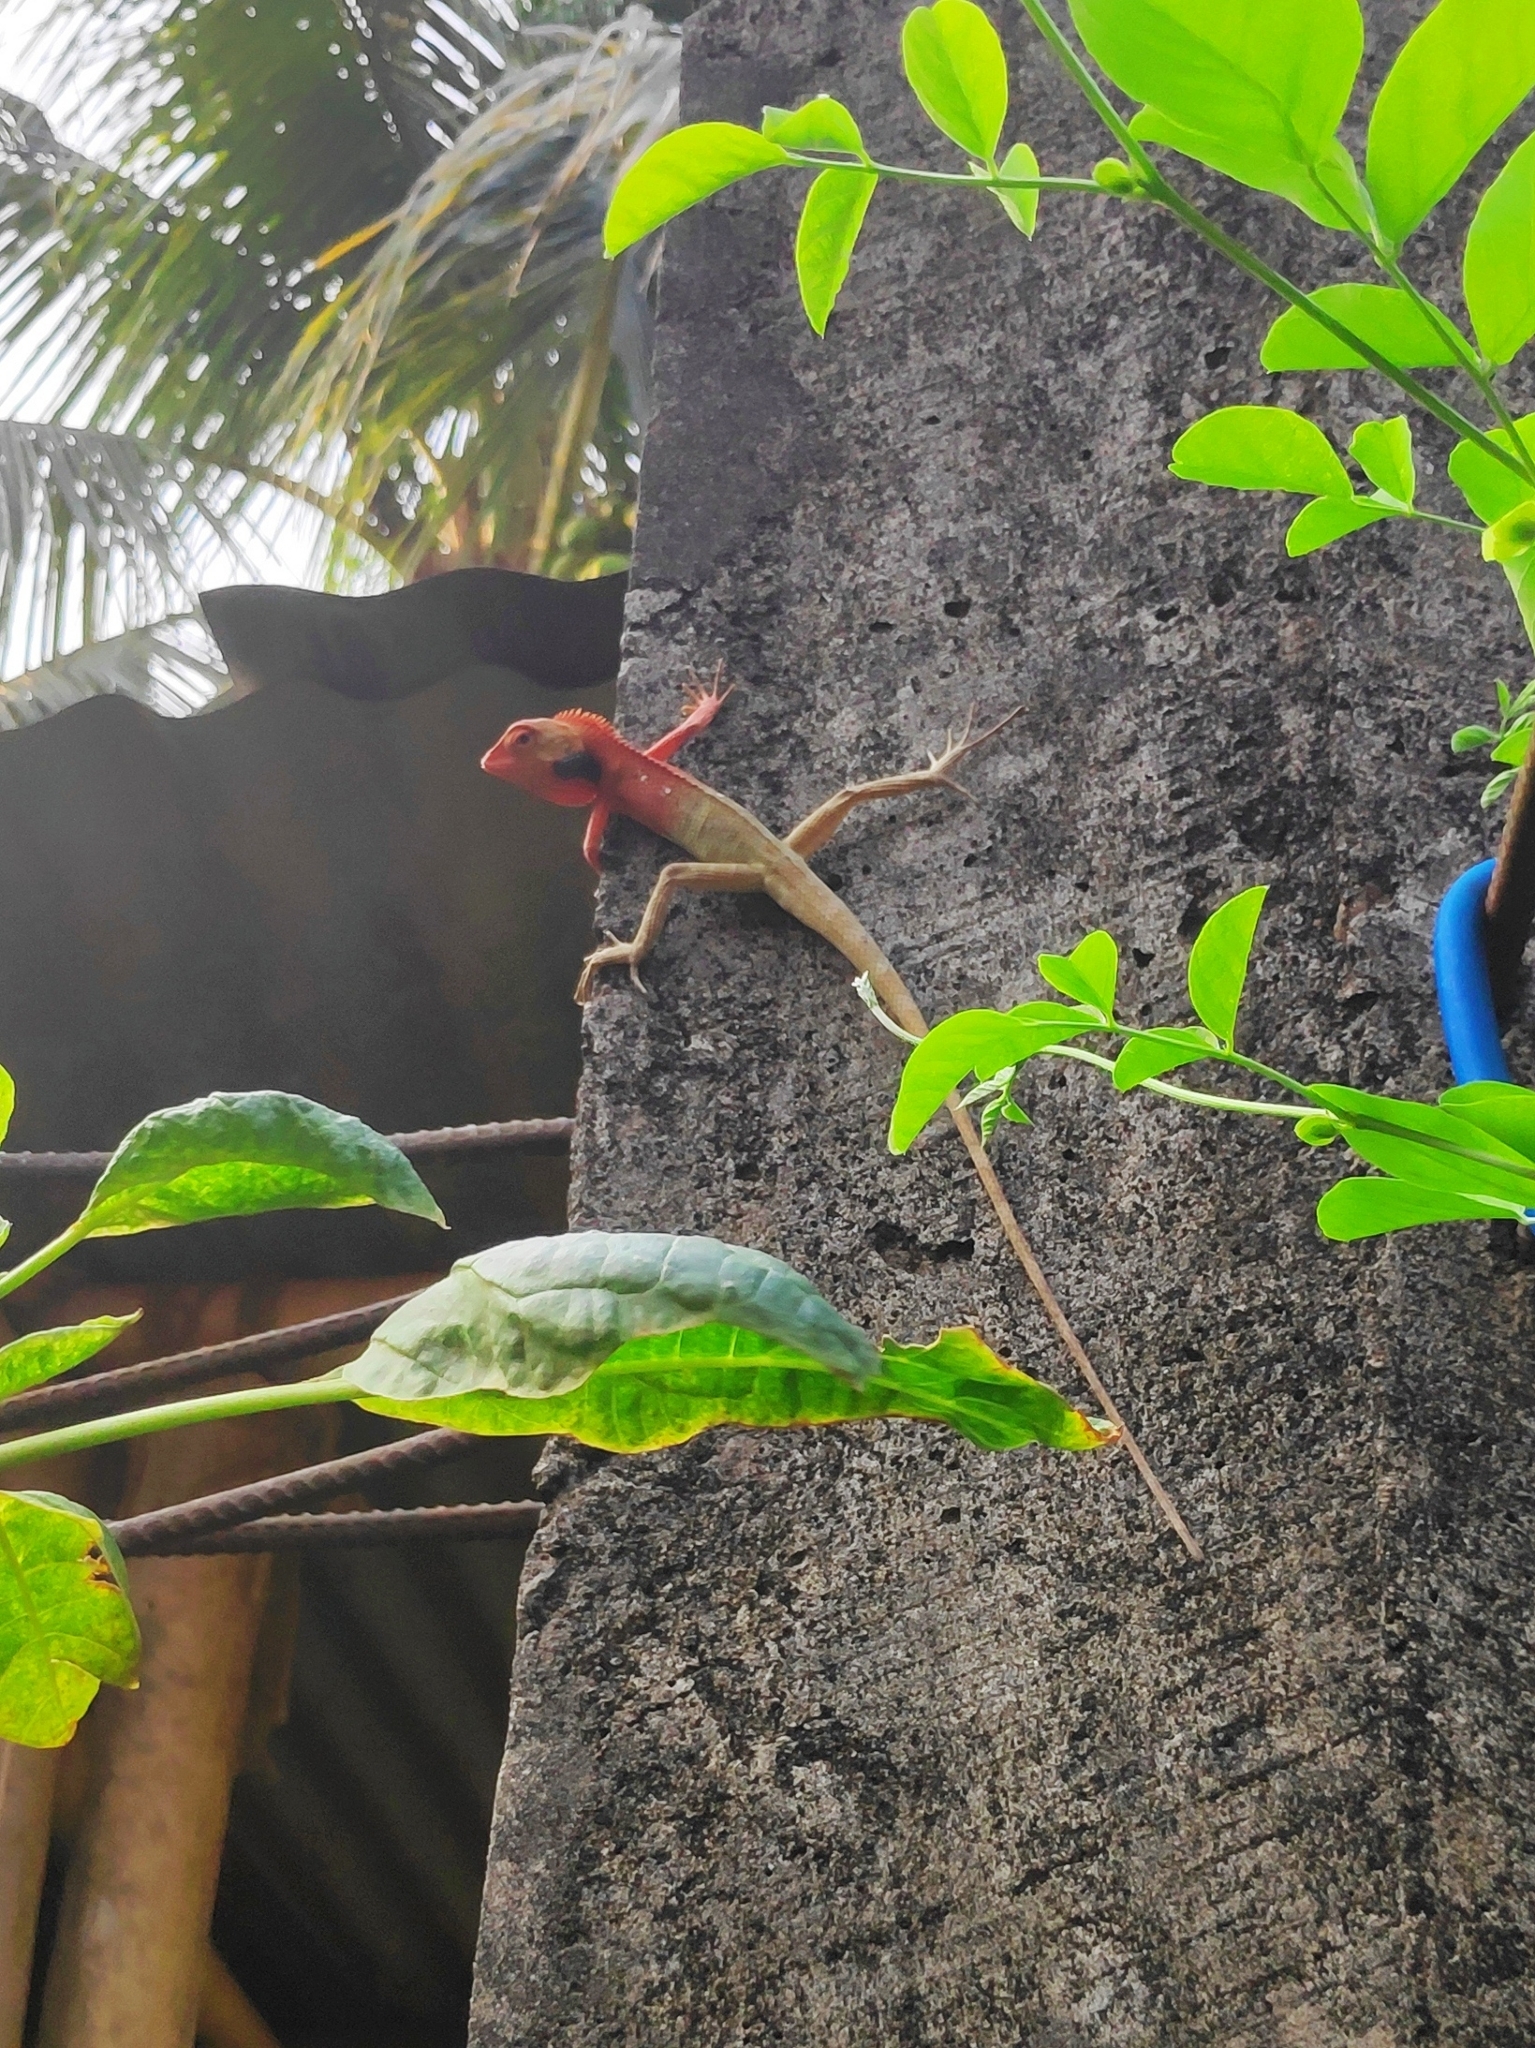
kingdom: Animalia
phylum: Chordata
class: Squamata
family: Agamidae
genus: Calotes
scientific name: Calotes versicolor
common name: Oriental garden lizard
